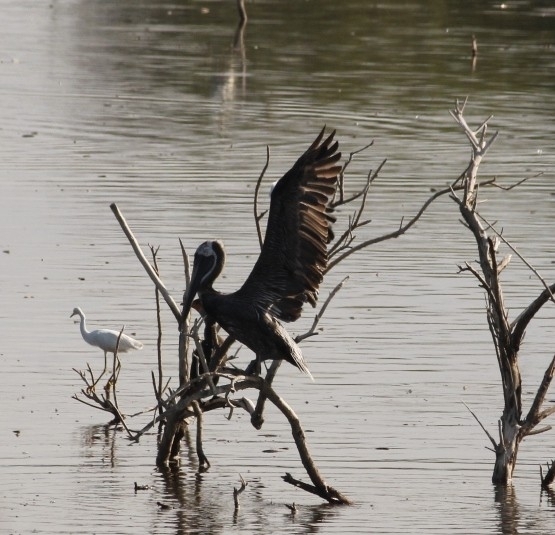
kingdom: Animalia
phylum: Chordata
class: Aves
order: Pelecaniformes
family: Pelecanidae
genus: Pelecanus
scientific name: Pelecanus occidentalis
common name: Brown pelican
